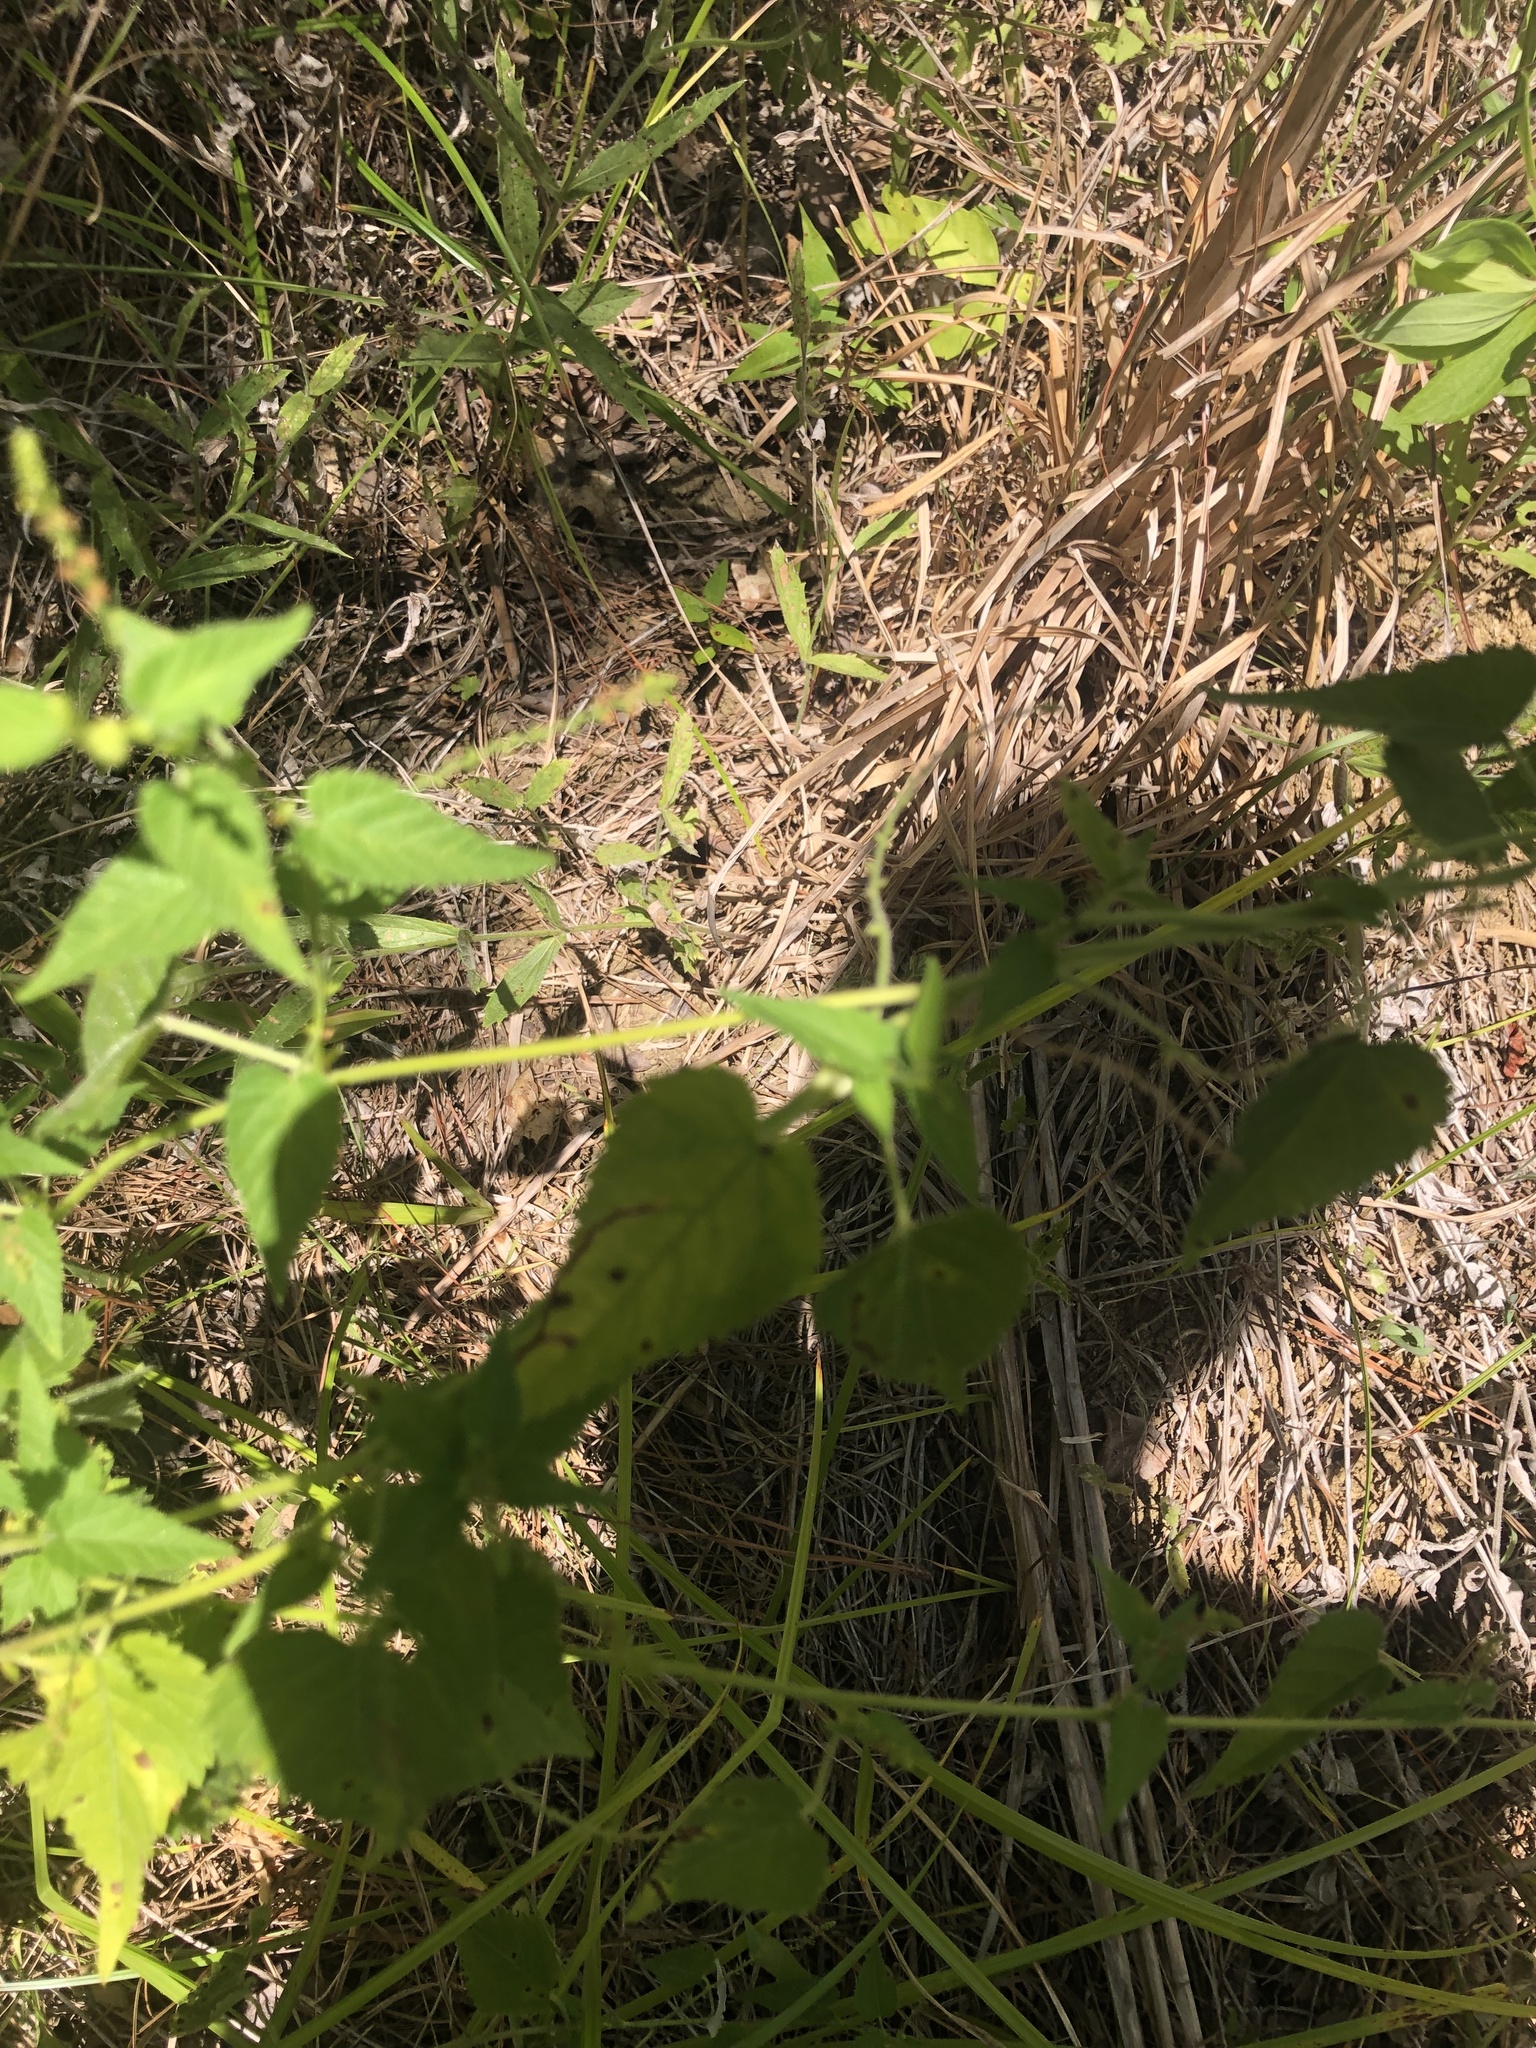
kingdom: Plantae
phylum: Tracheophyta
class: Magnoliopsida
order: Malpighiales
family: Euphorbiaceae
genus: Tragia
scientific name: Tragia cordata
